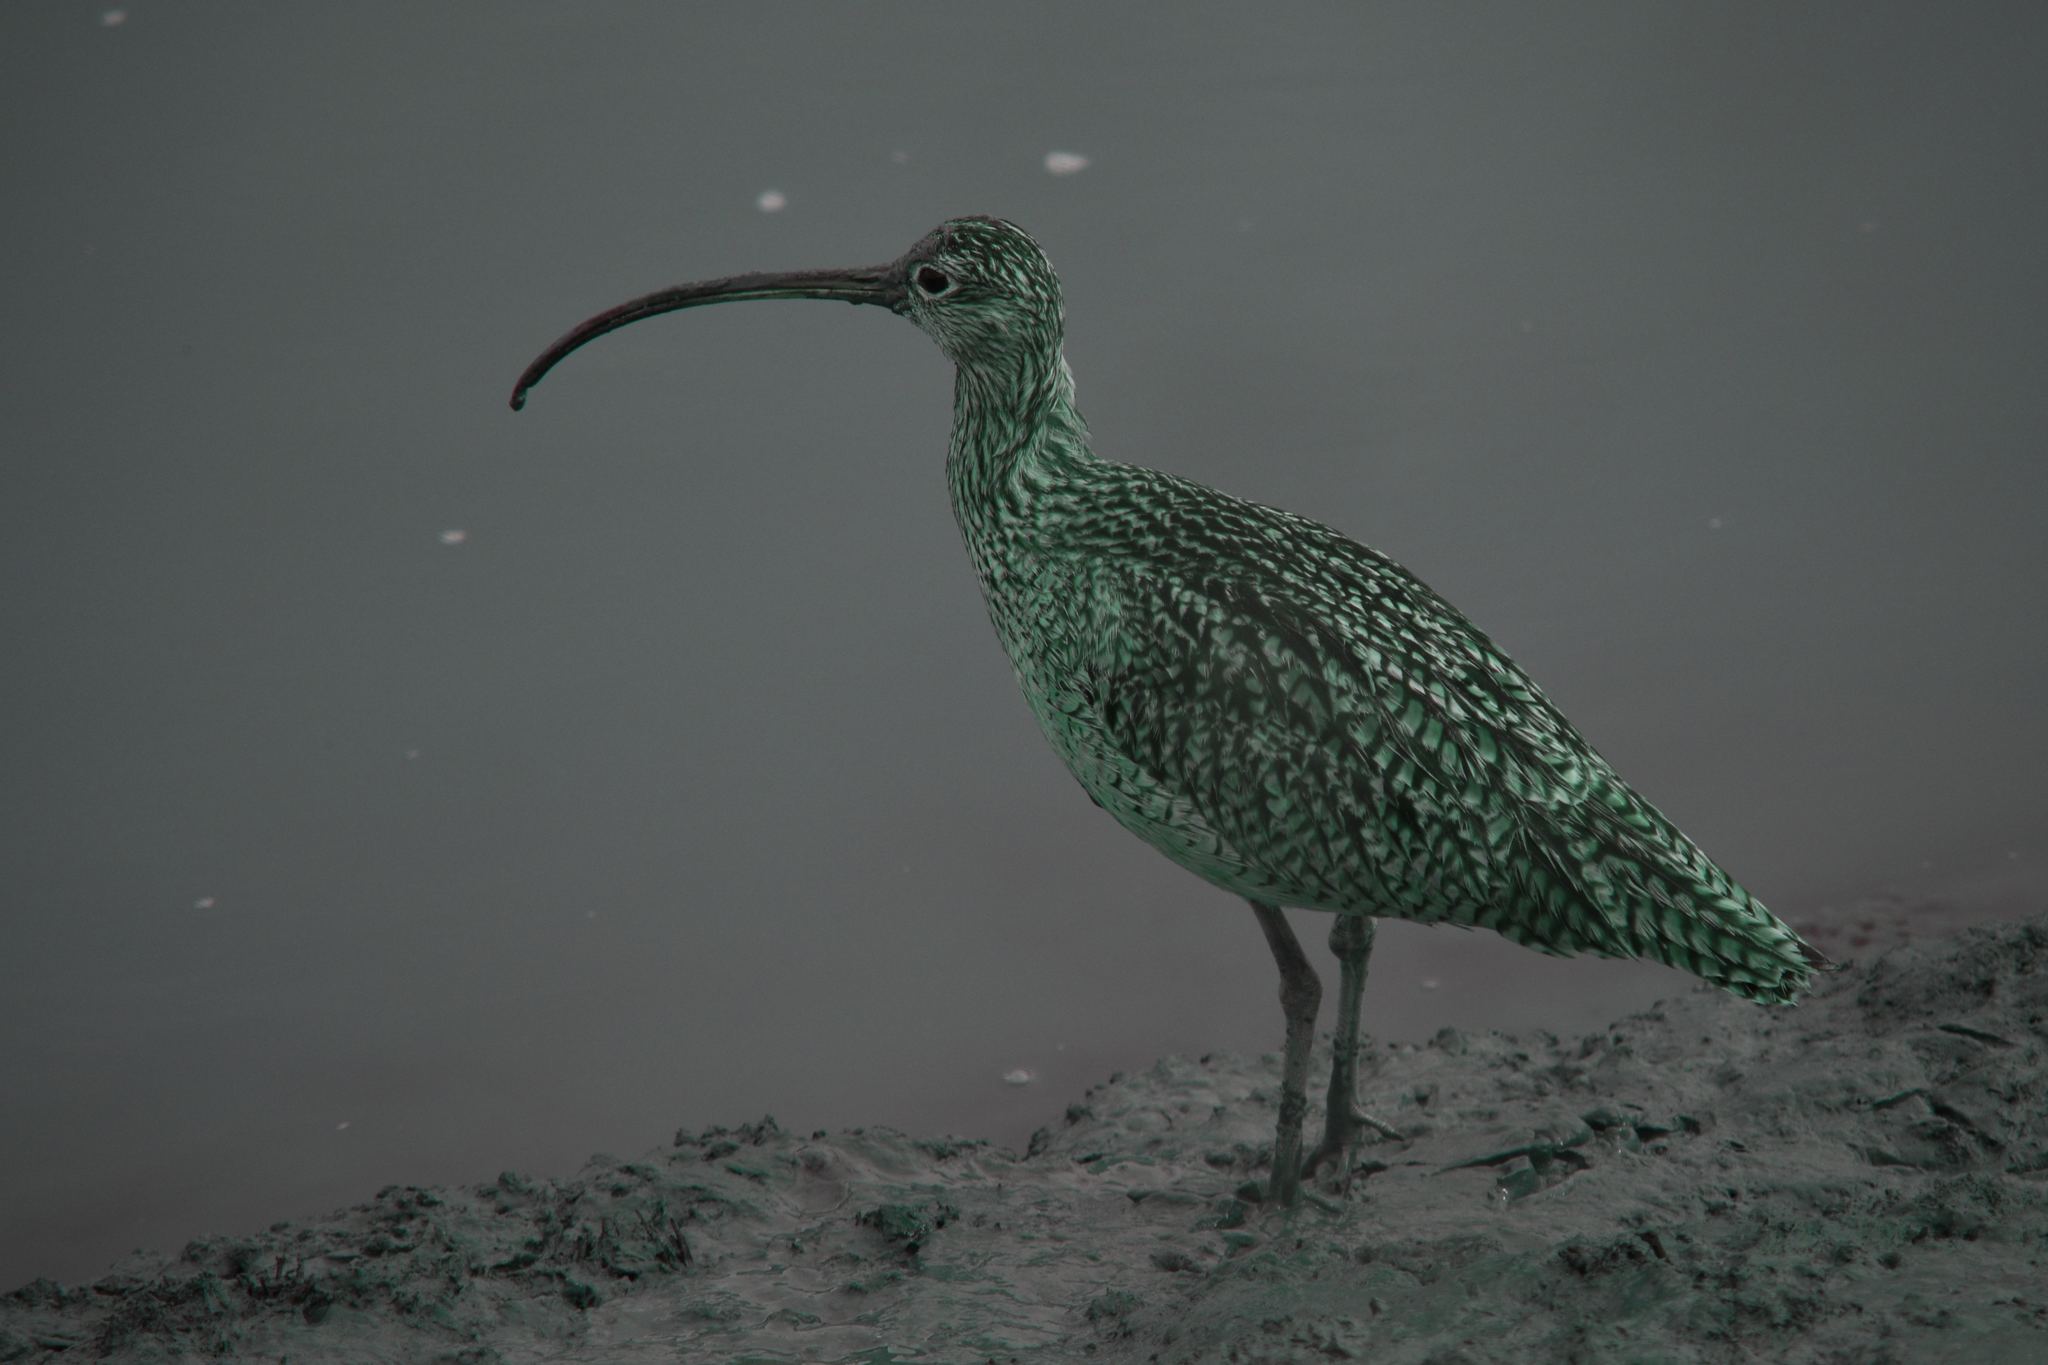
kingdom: Animalia
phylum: Chordata
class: Aves
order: Charadriiformes
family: Scolopacidae
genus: Numenius
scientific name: Numenius americanus
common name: Long-billed curlew
